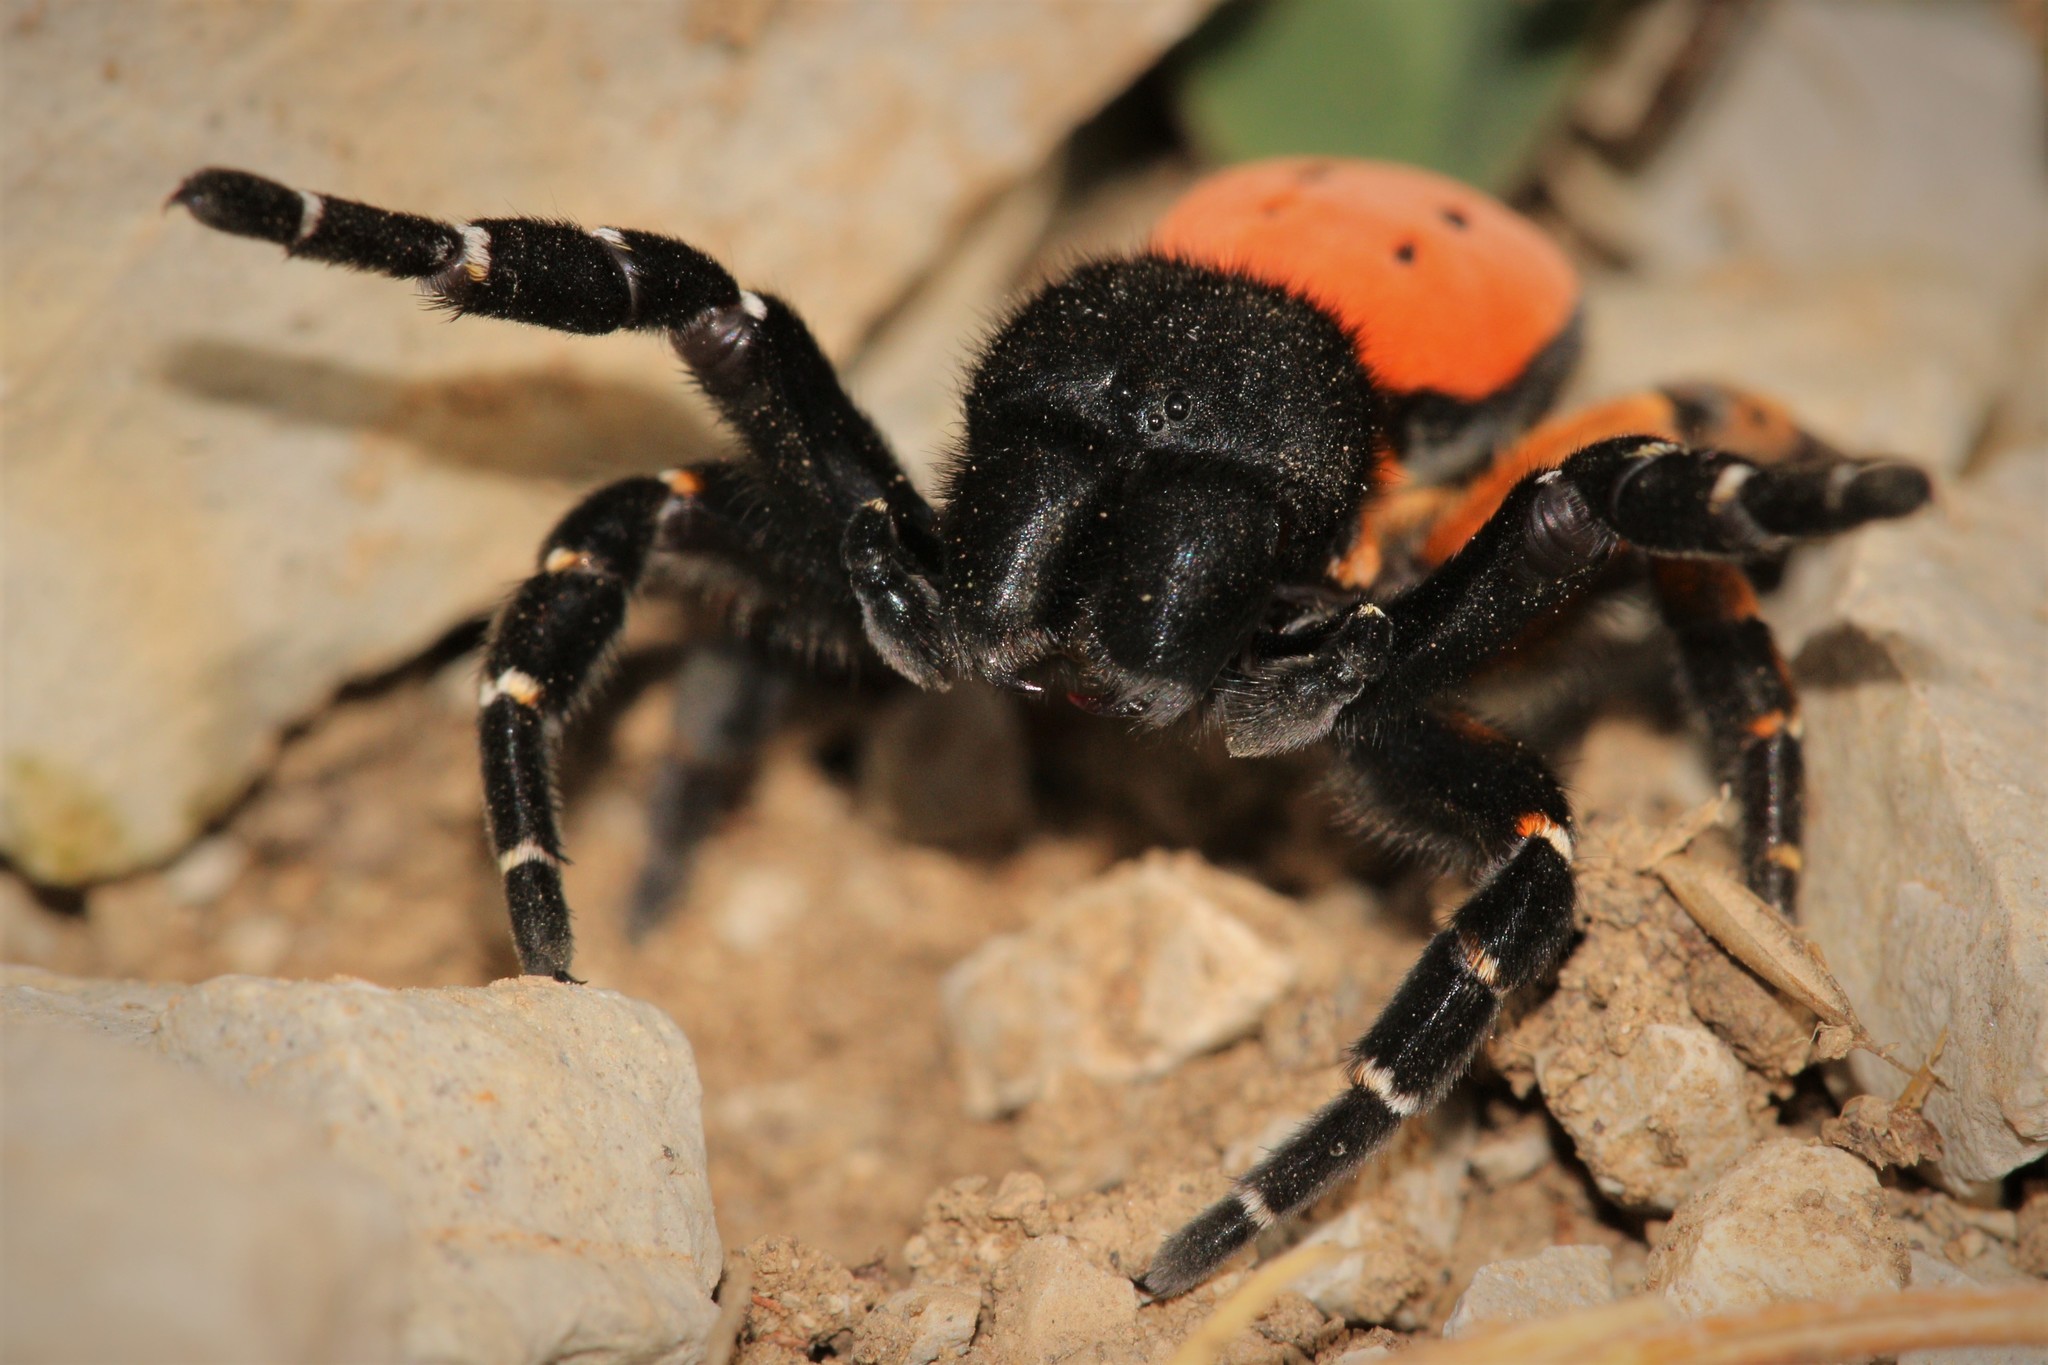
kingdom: Animalia
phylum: Arthropoda
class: Arachnida
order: Araneae
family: Eresidae
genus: Eresus
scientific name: Eresus kollari
